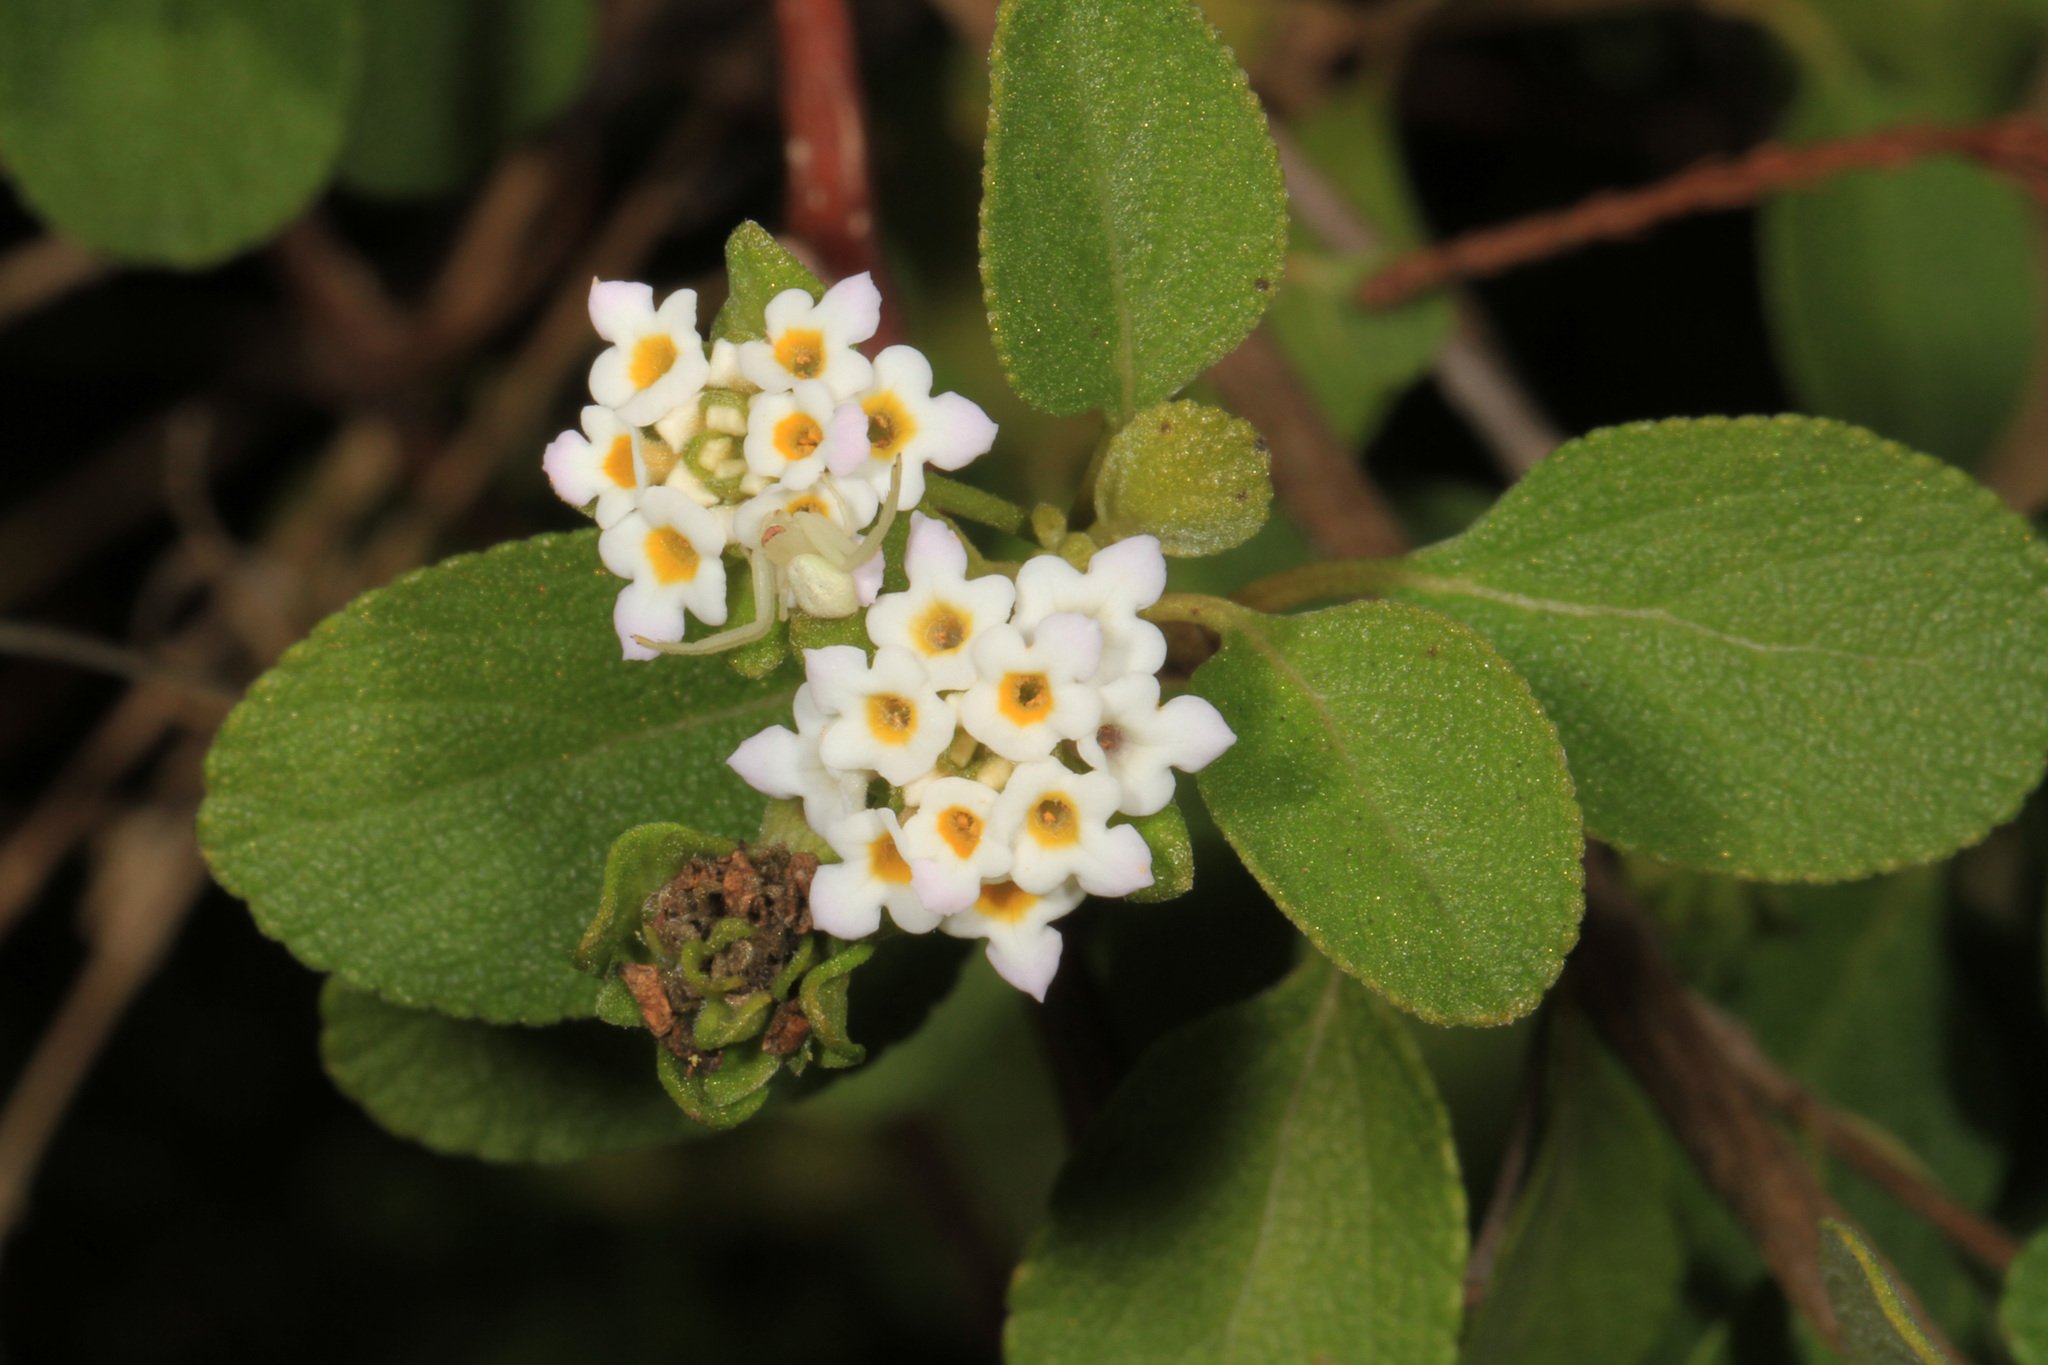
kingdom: Plantae
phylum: Tracheophyta
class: Magnoliopsida
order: Lamiales
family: Verbenaceae
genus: Lantana
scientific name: Lantana involucrata
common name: Black sage
